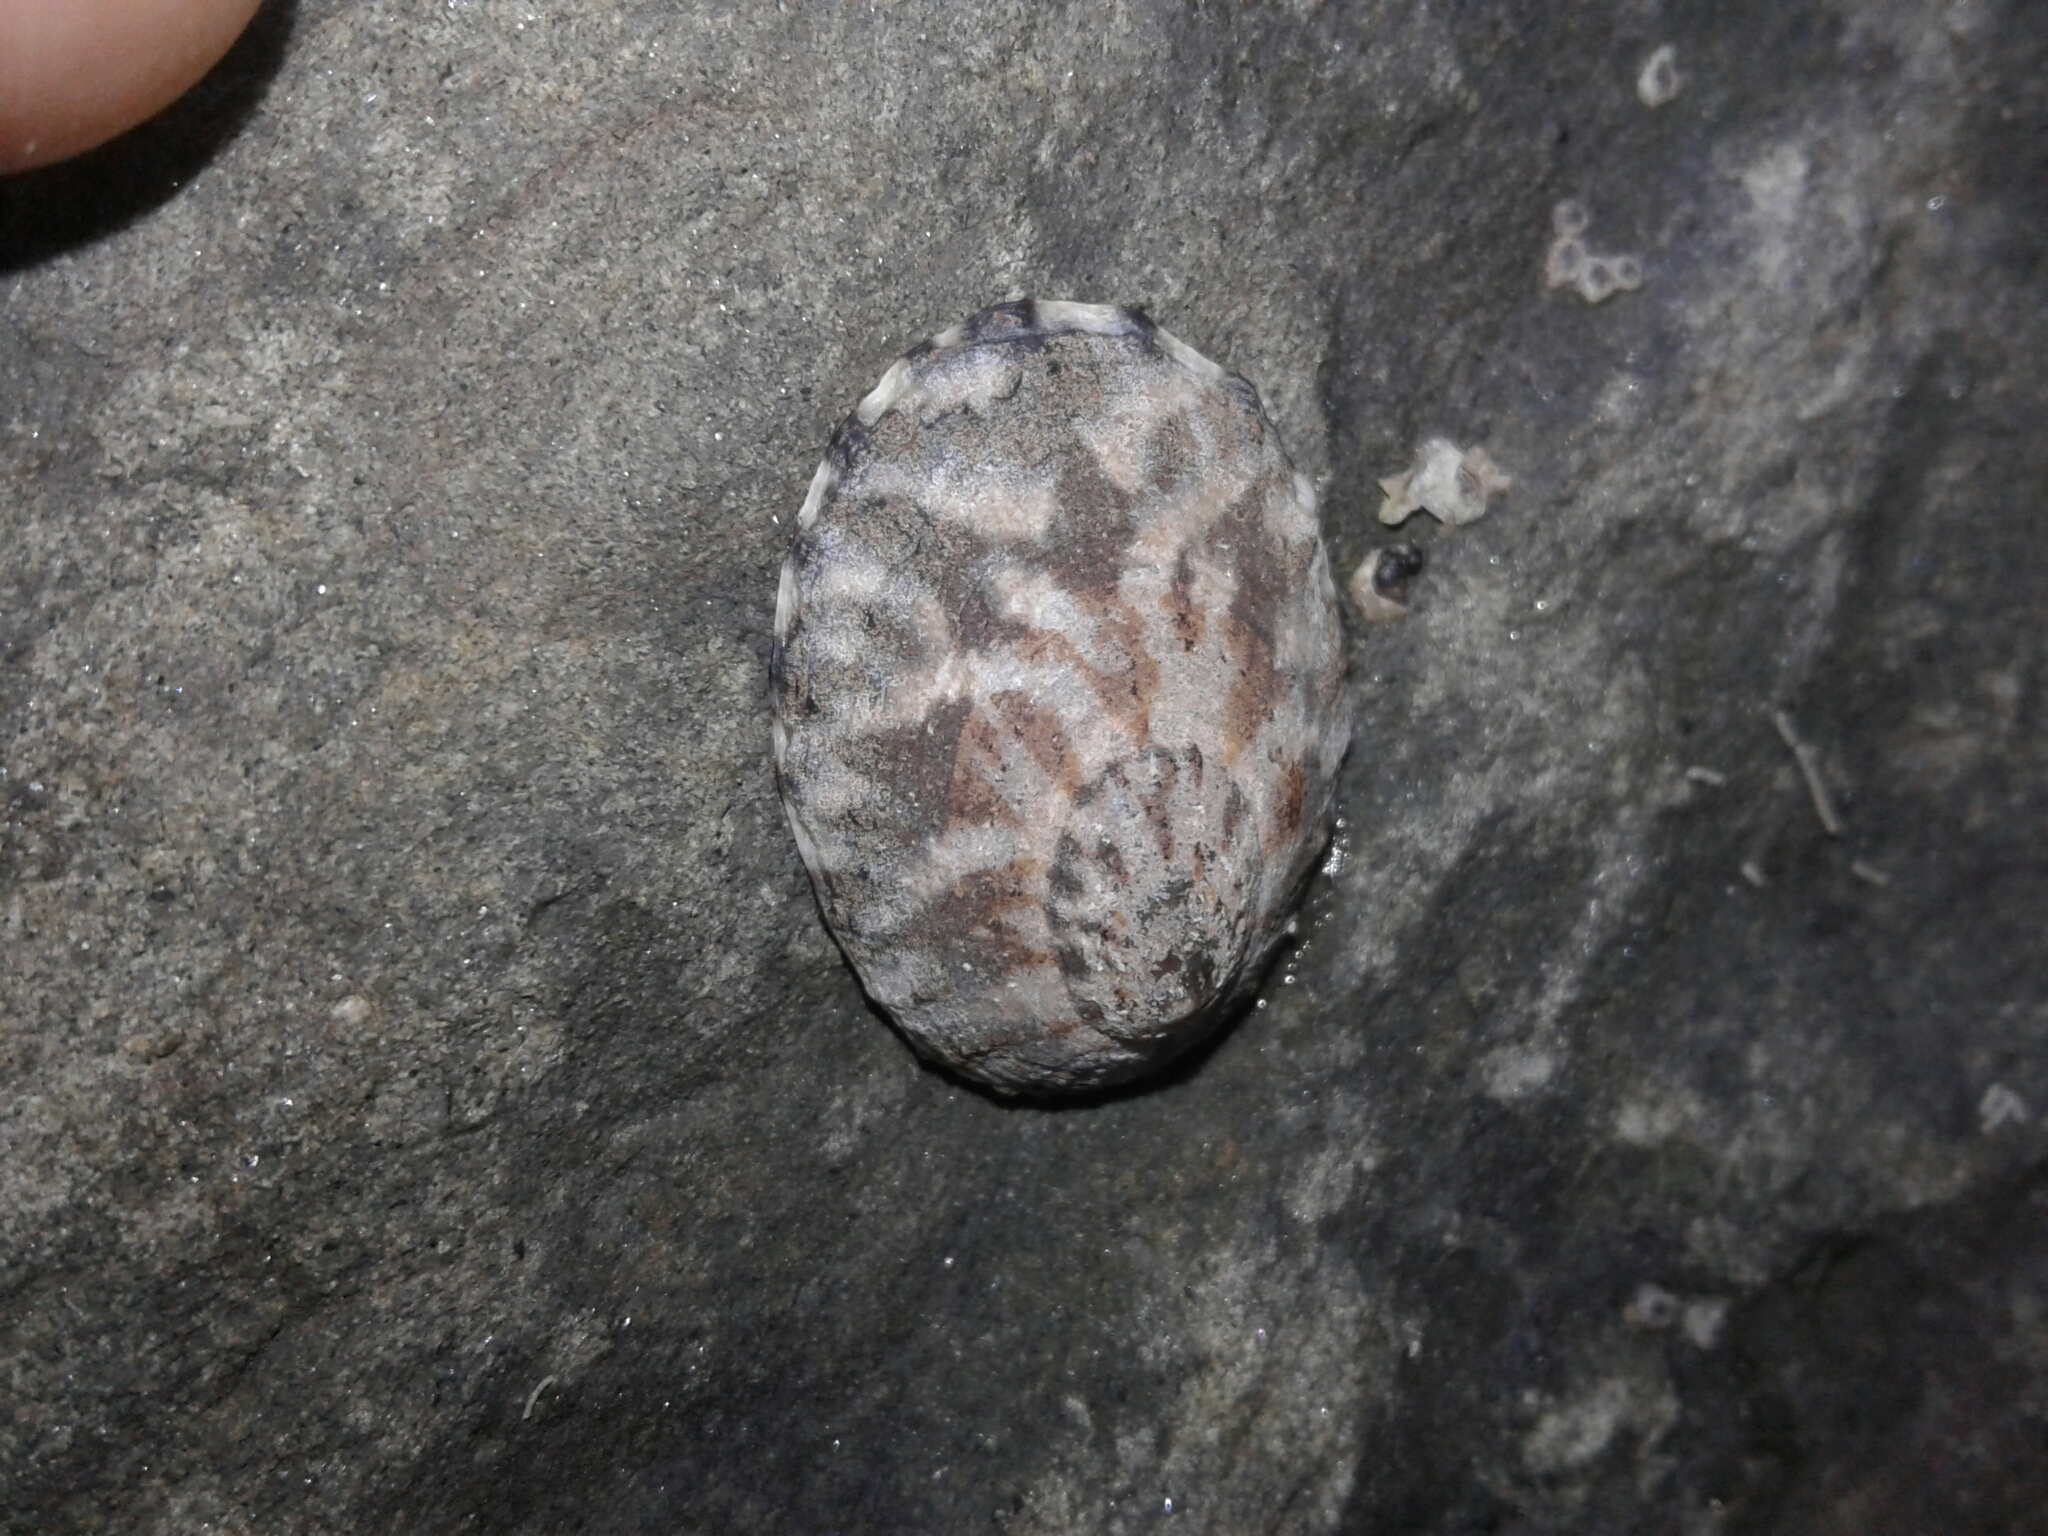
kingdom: Animalia
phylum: Mollusca
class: Gastropoda
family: Nacellidae
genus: Cellana
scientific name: Cellana radians
